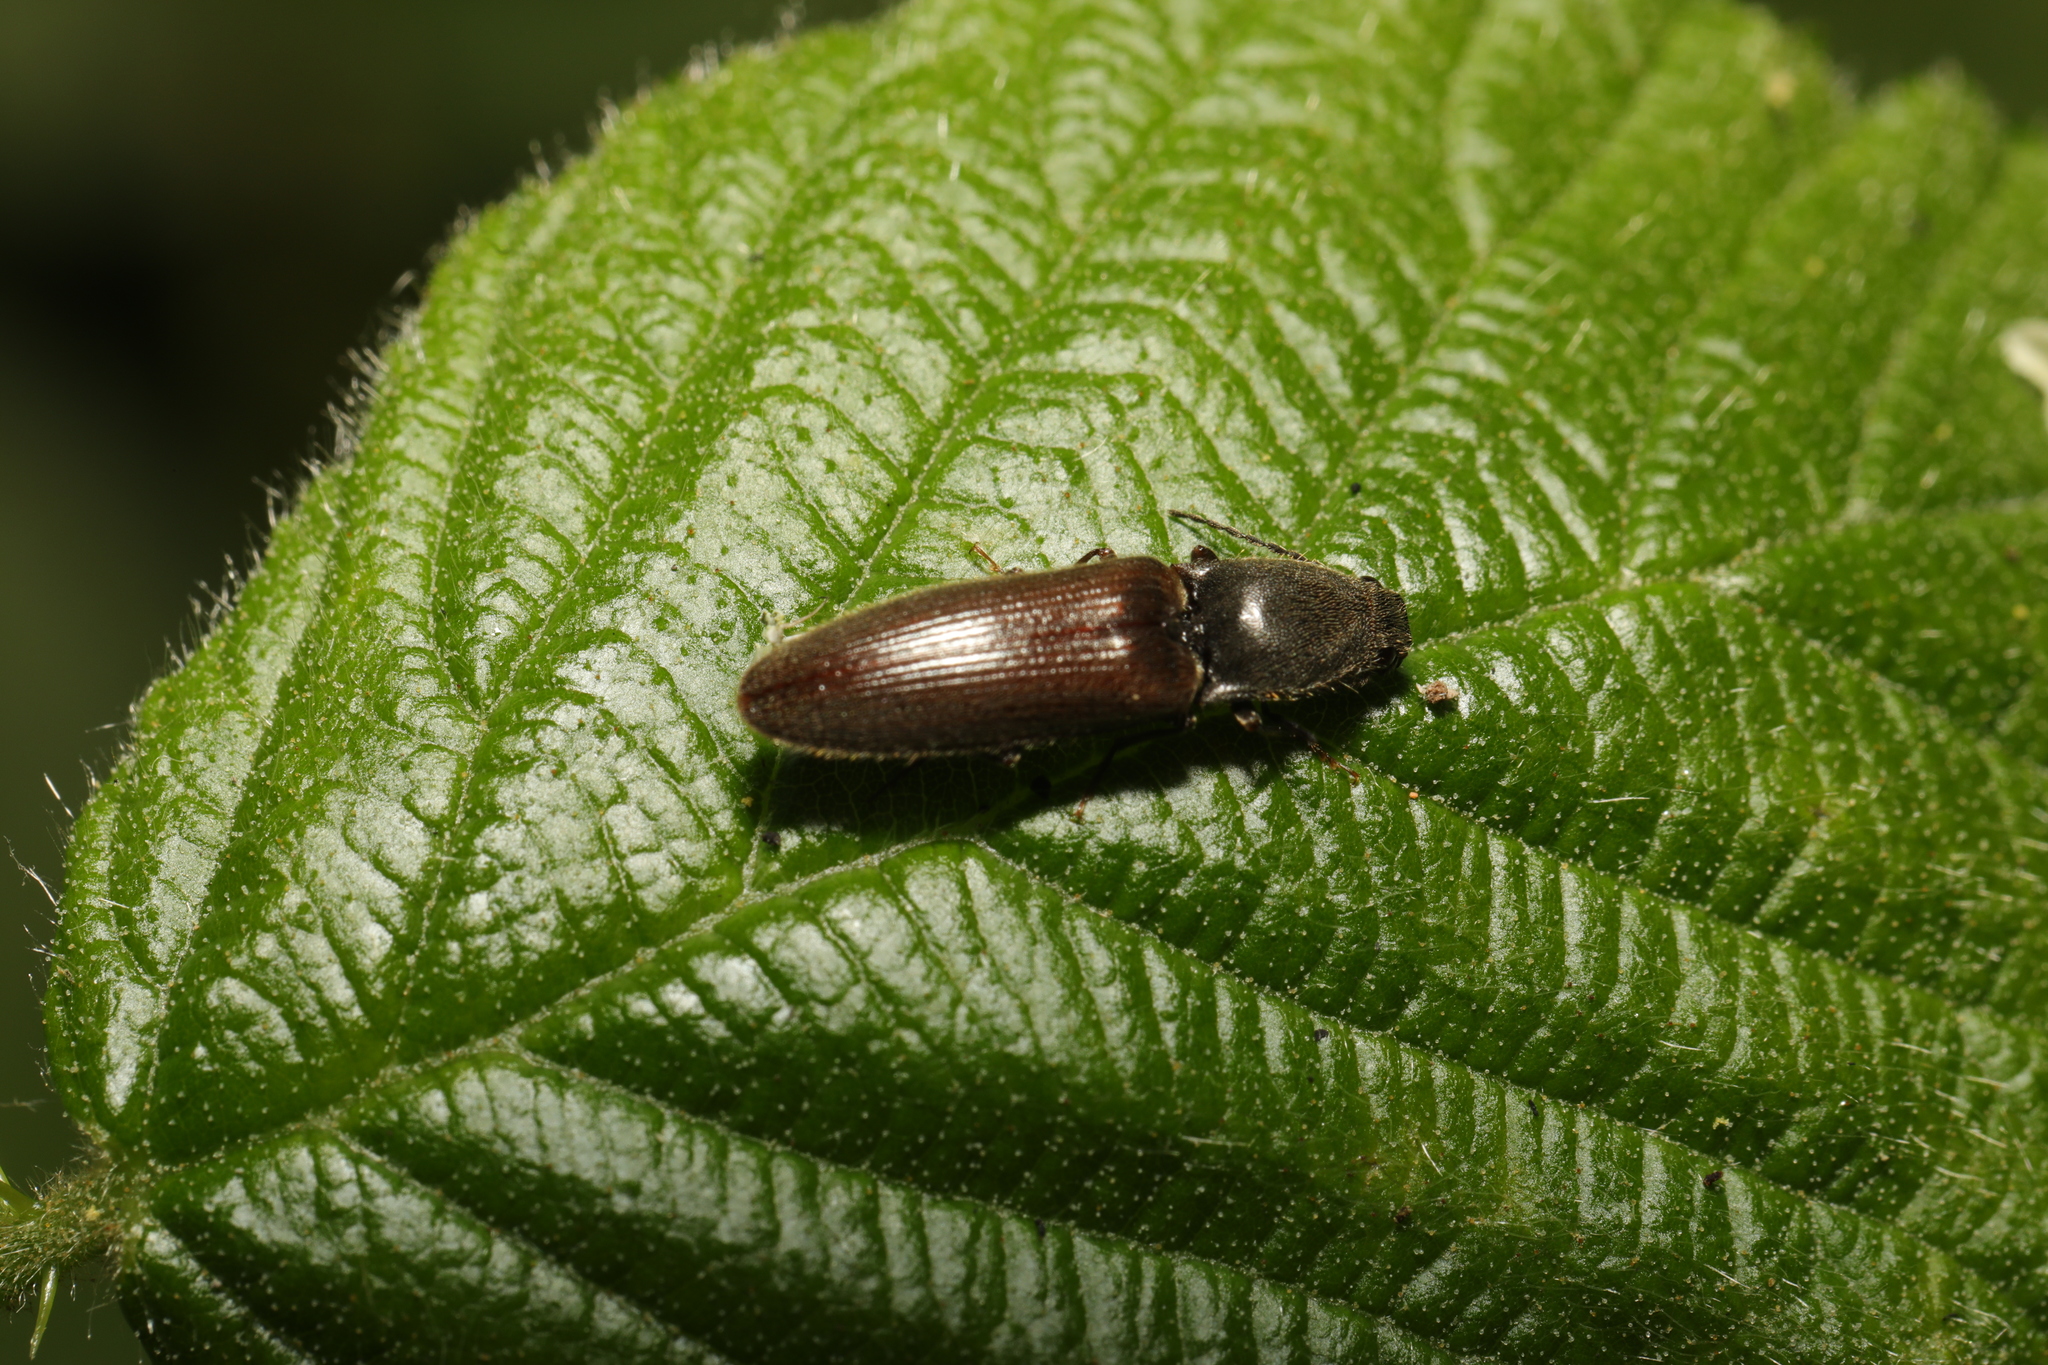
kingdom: Animalia
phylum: Arthropoda
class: Insecta
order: Coleoptera
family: Elateridae
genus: Athous
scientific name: Athous haemorrhoidalis
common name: Red-brown click beetle
